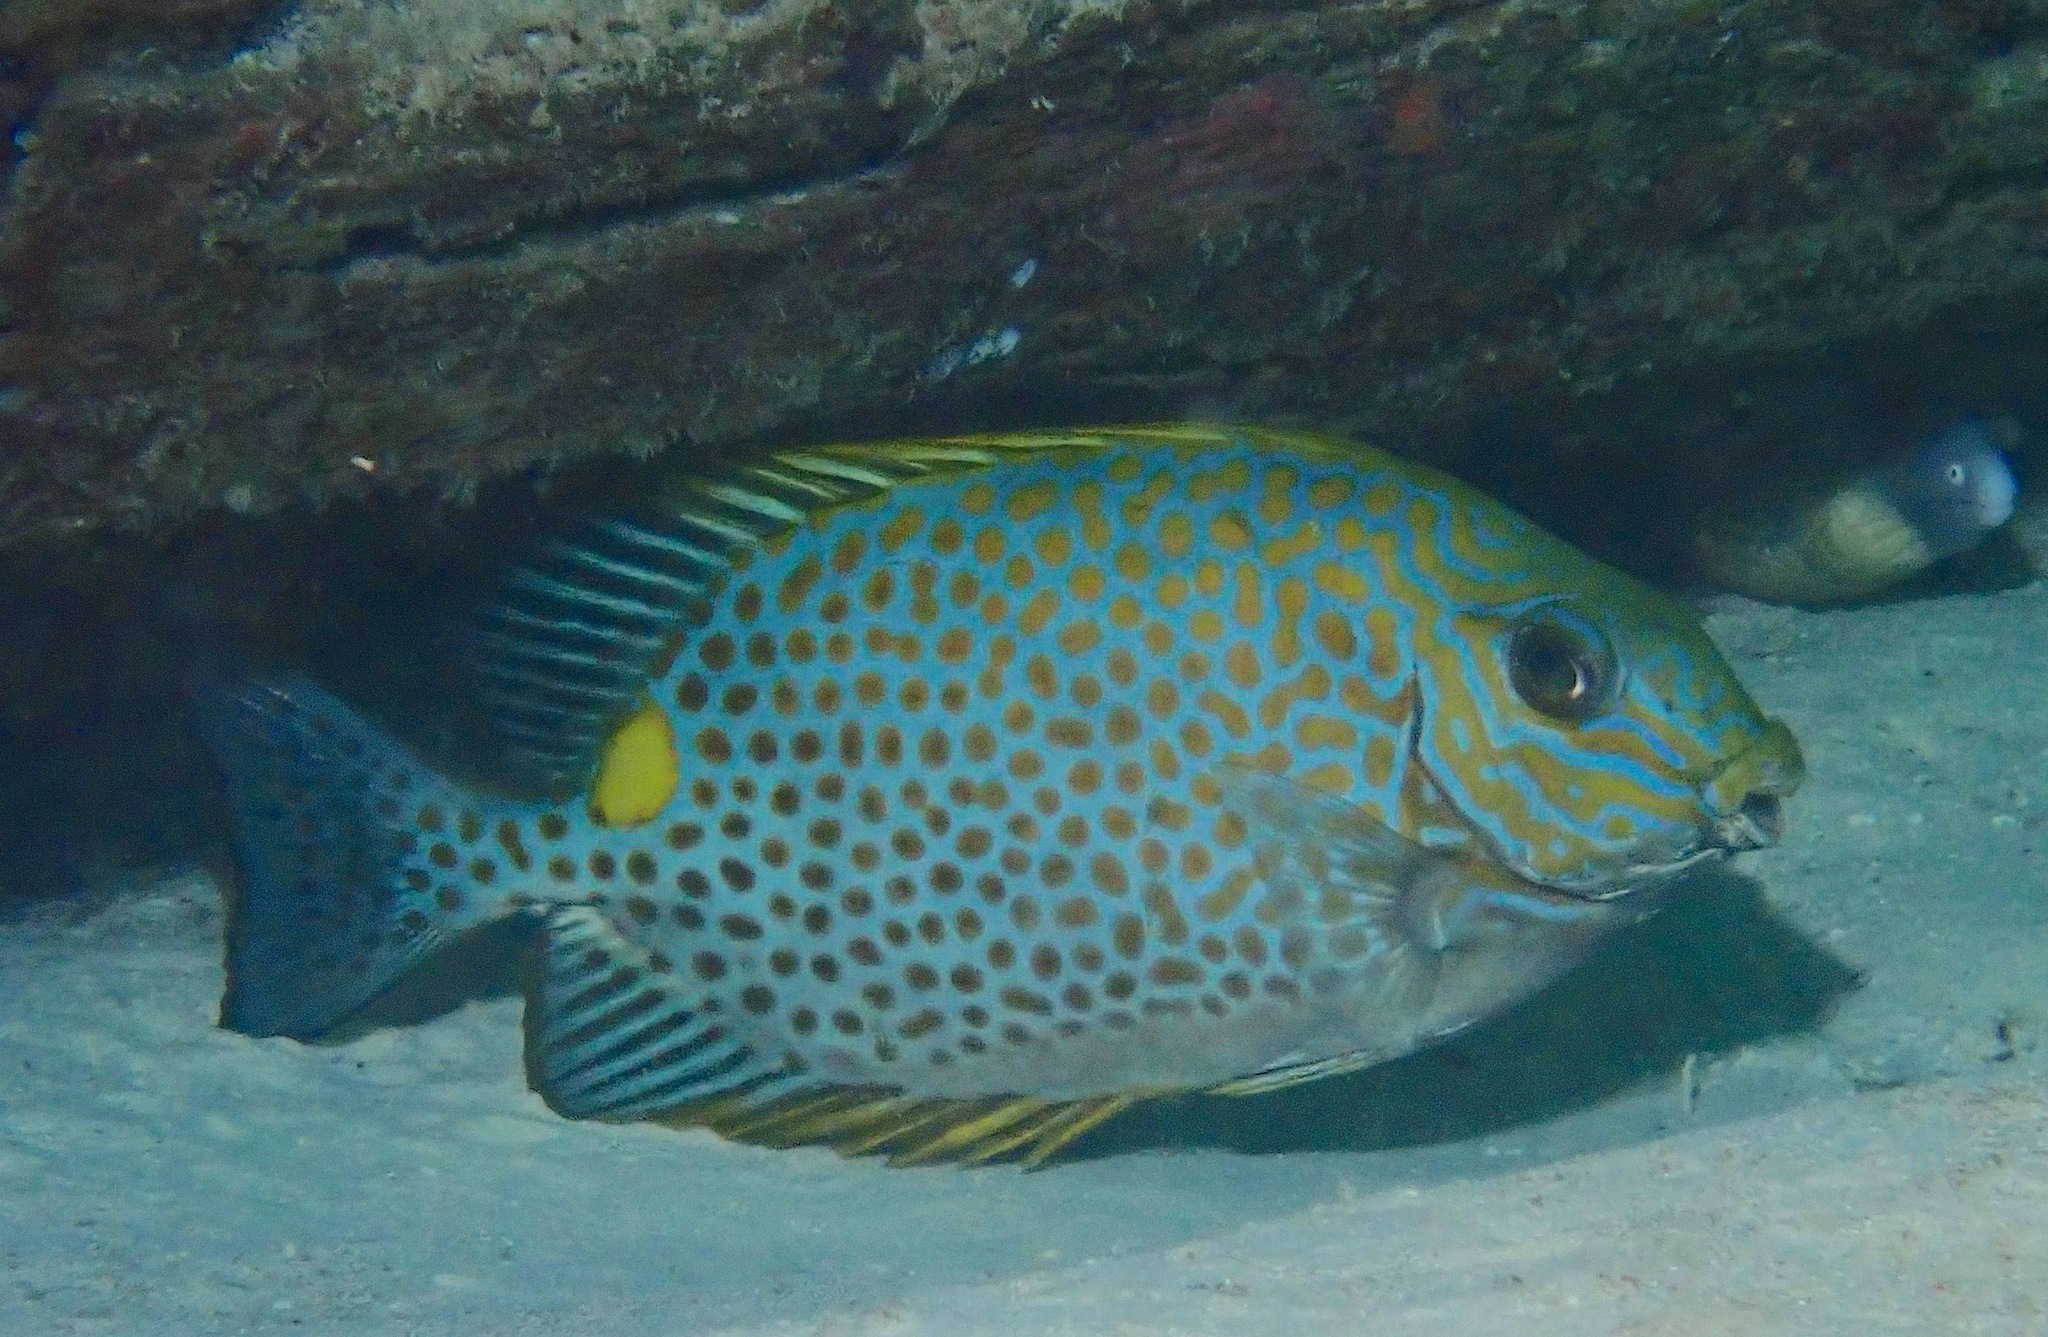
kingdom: Animalia
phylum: Chordata
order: Perciformes
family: Siganidae
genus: Siganus
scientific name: Siganus guttatus
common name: Golden rabbitfish
